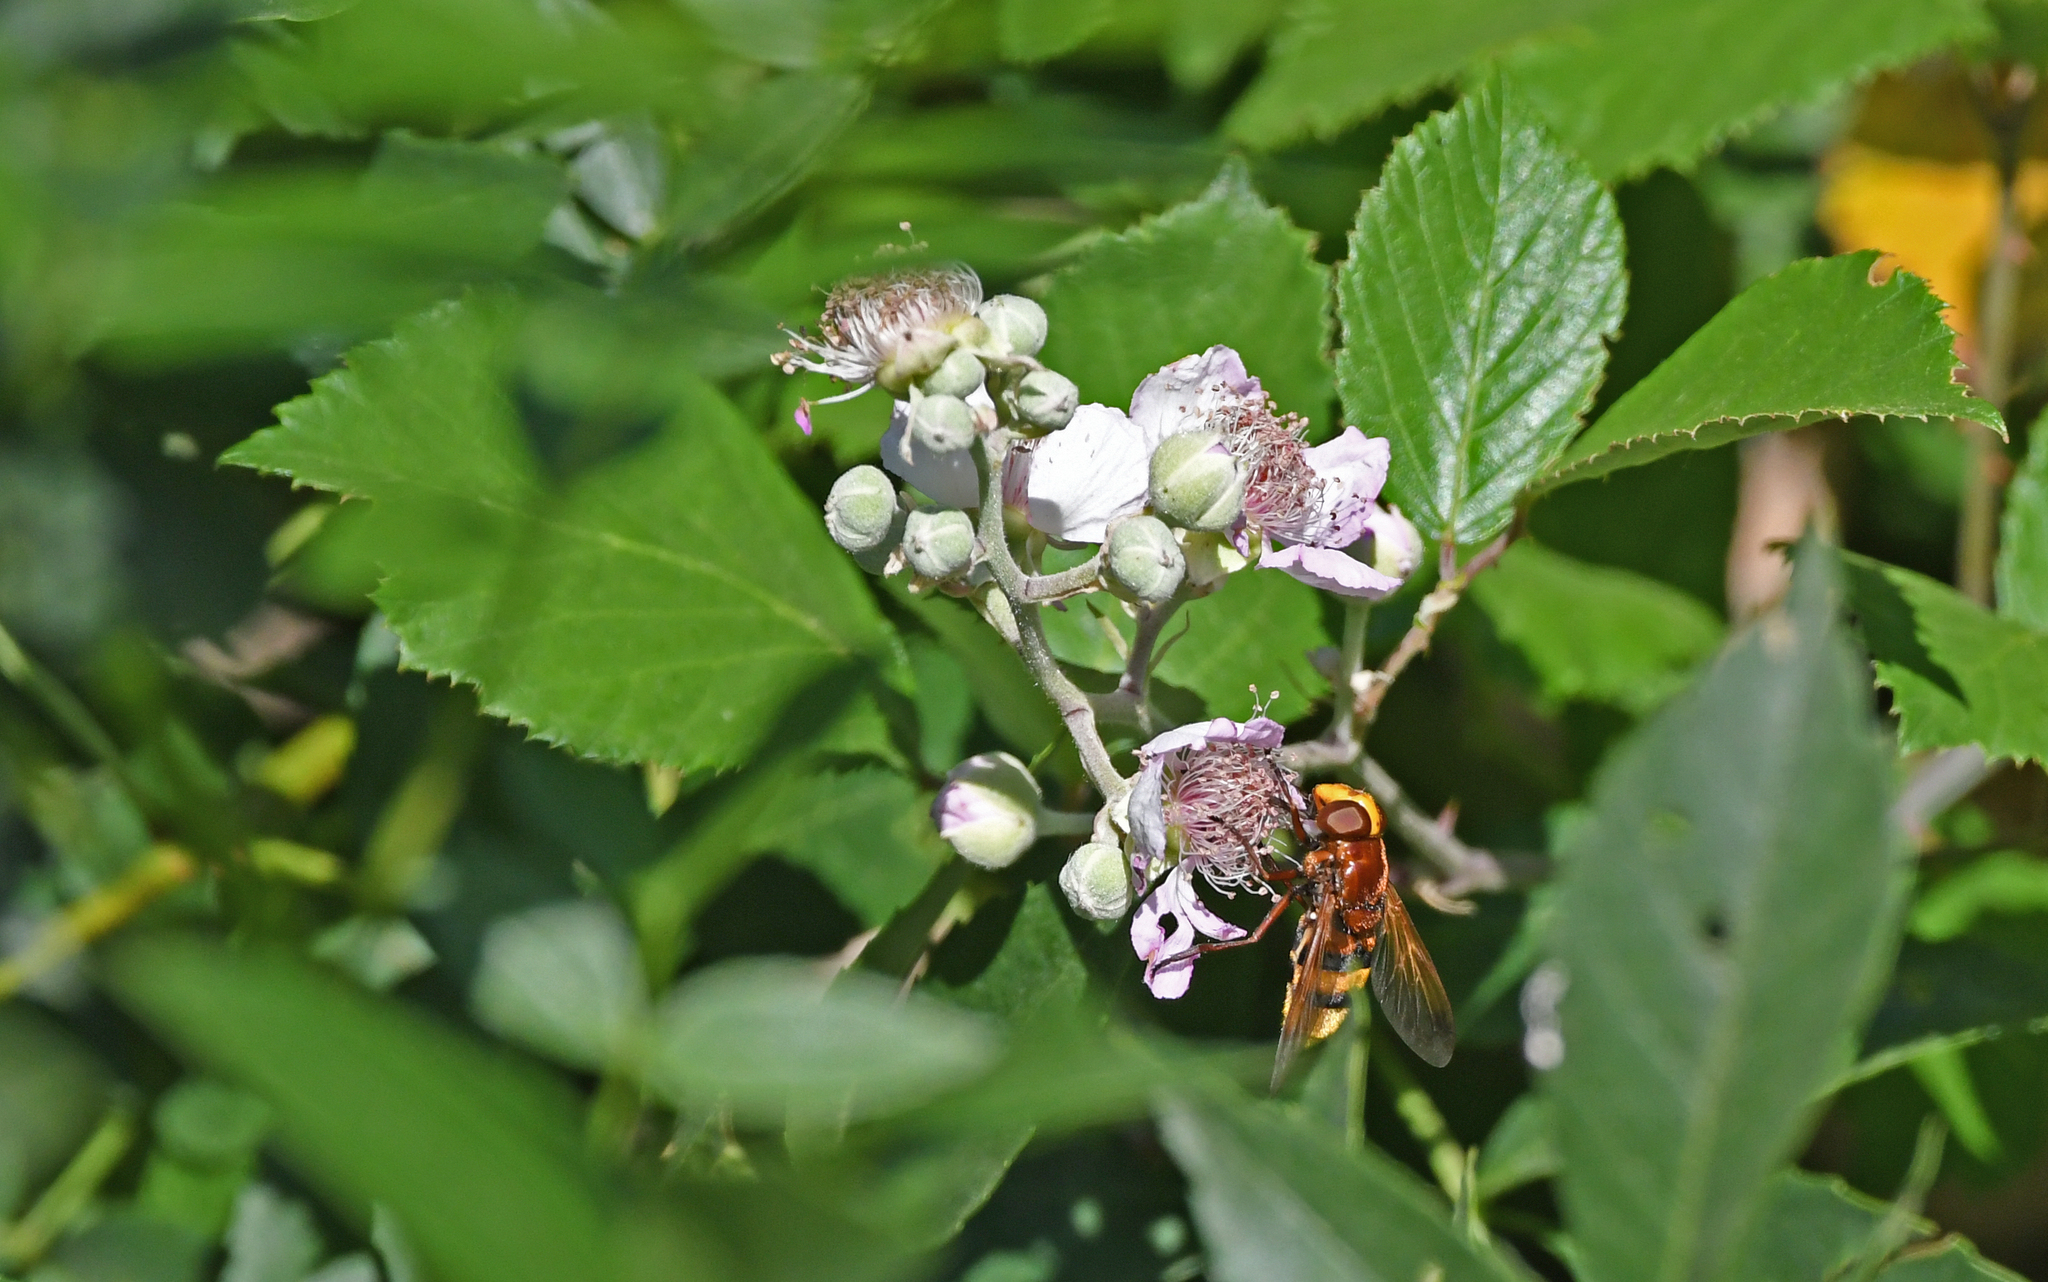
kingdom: Animalia
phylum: Arthropoda
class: Insecta
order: Diptera
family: Syrphidae
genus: Volucella
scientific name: Volucella zonaria
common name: Hornet hoverfly
